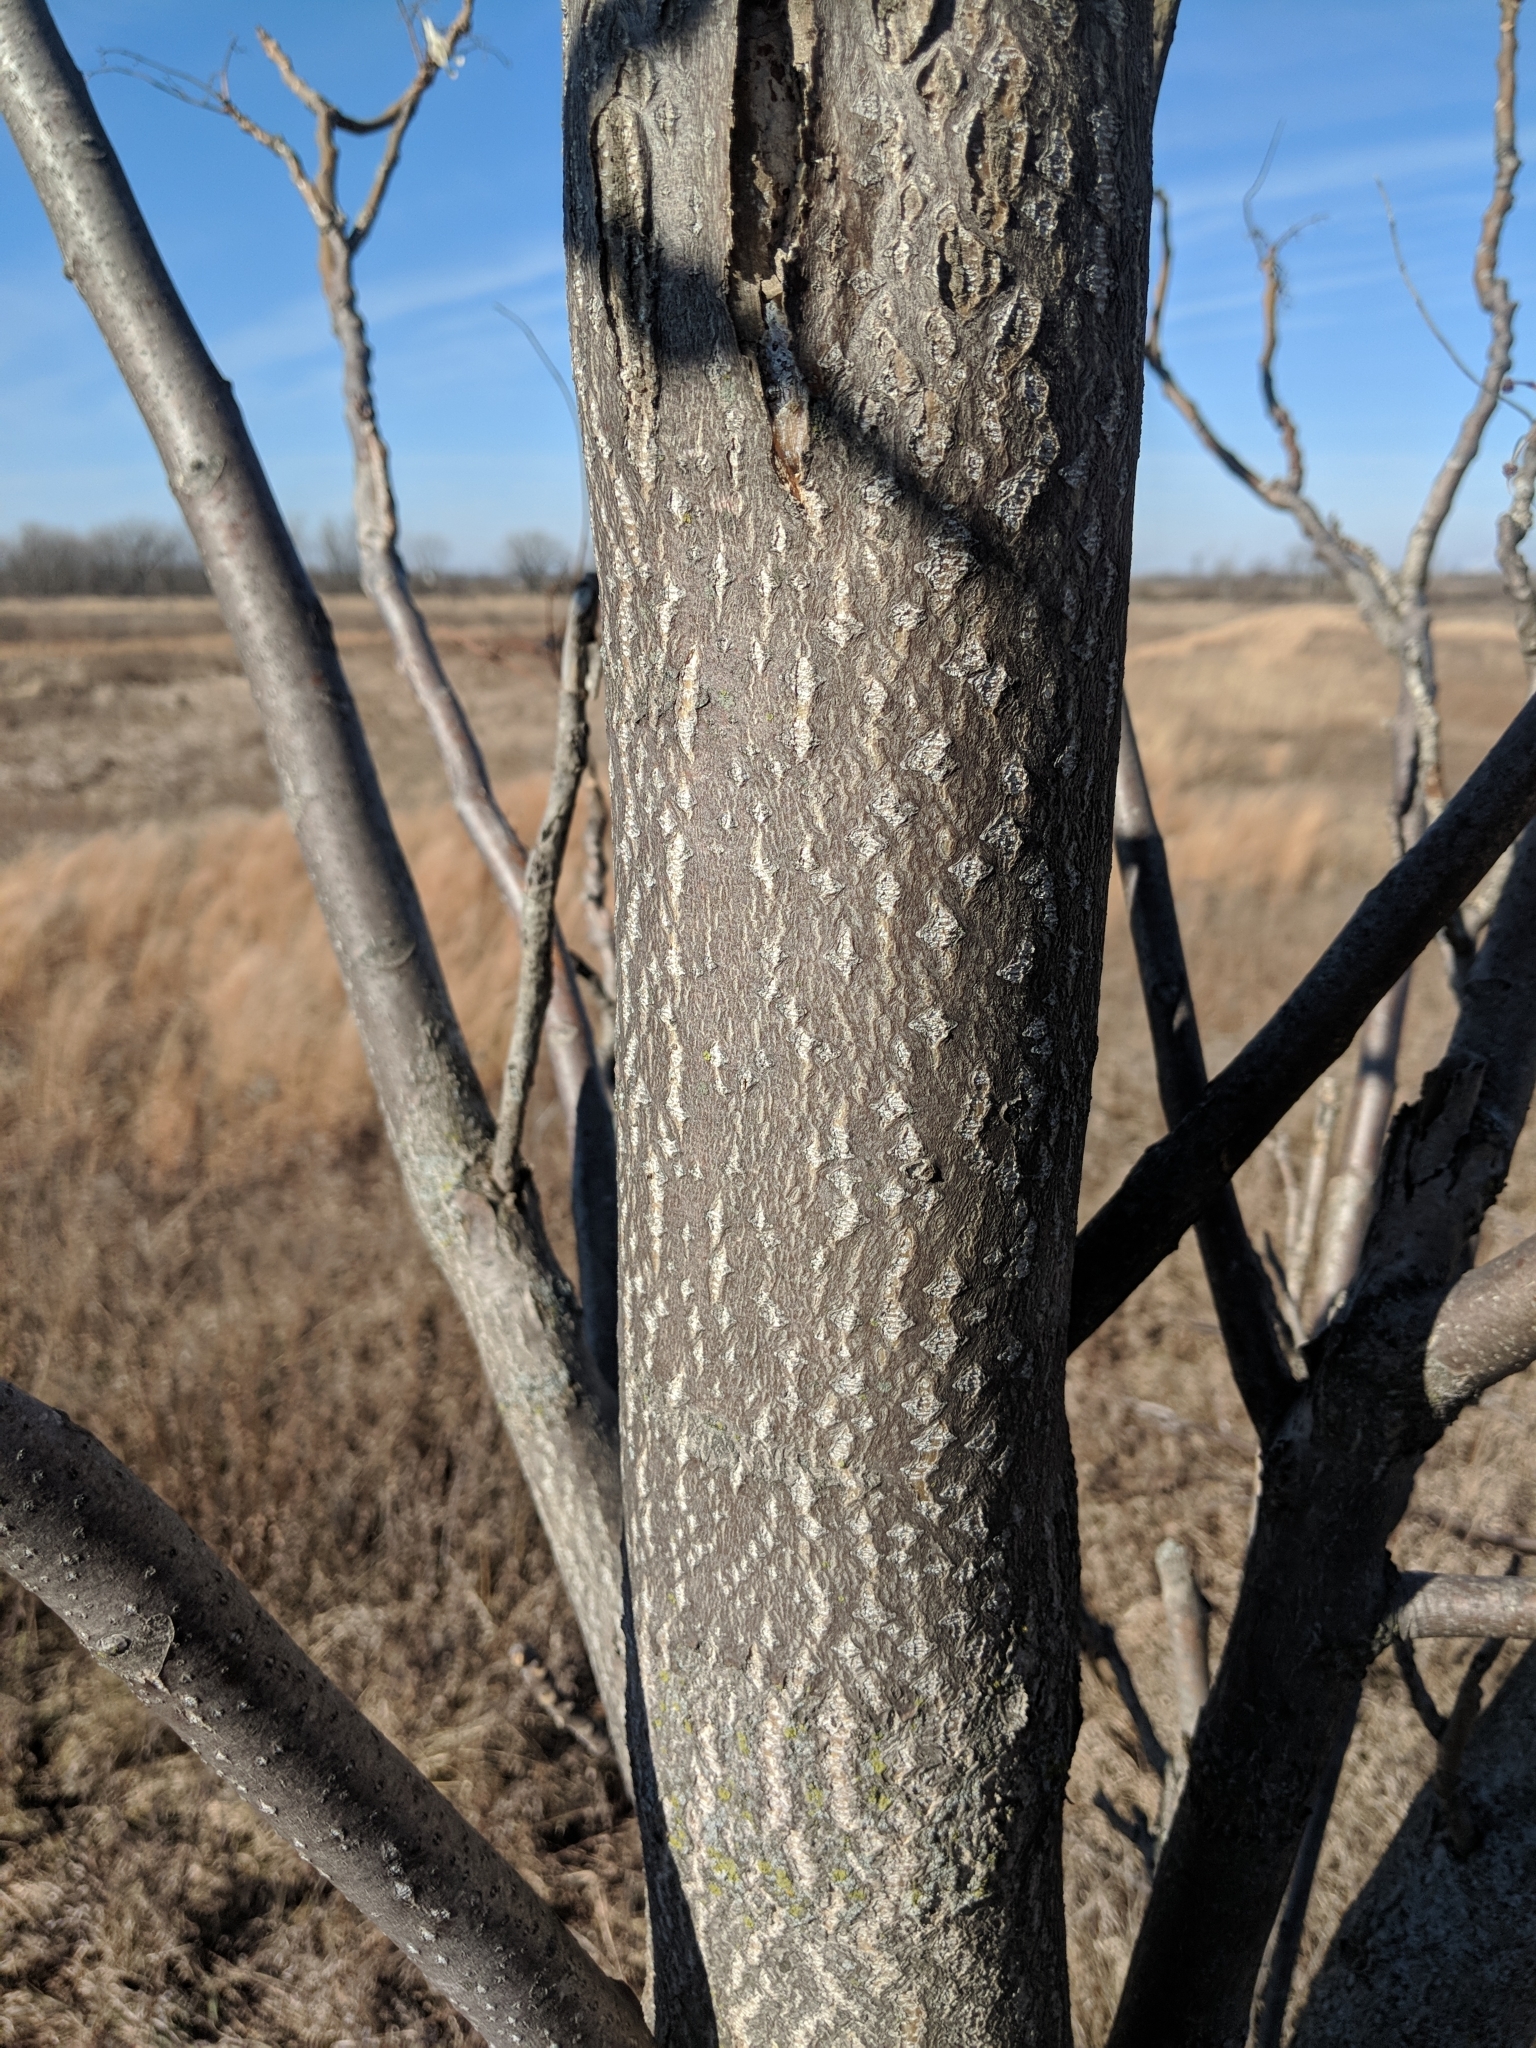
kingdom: Plantae
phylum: Tracheophyta
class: Magnoliopsida
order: Sapindales
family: Simaroubaceae
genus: Ailanthus
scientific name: Ailanthus altissima
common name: Tree-of-heaven
